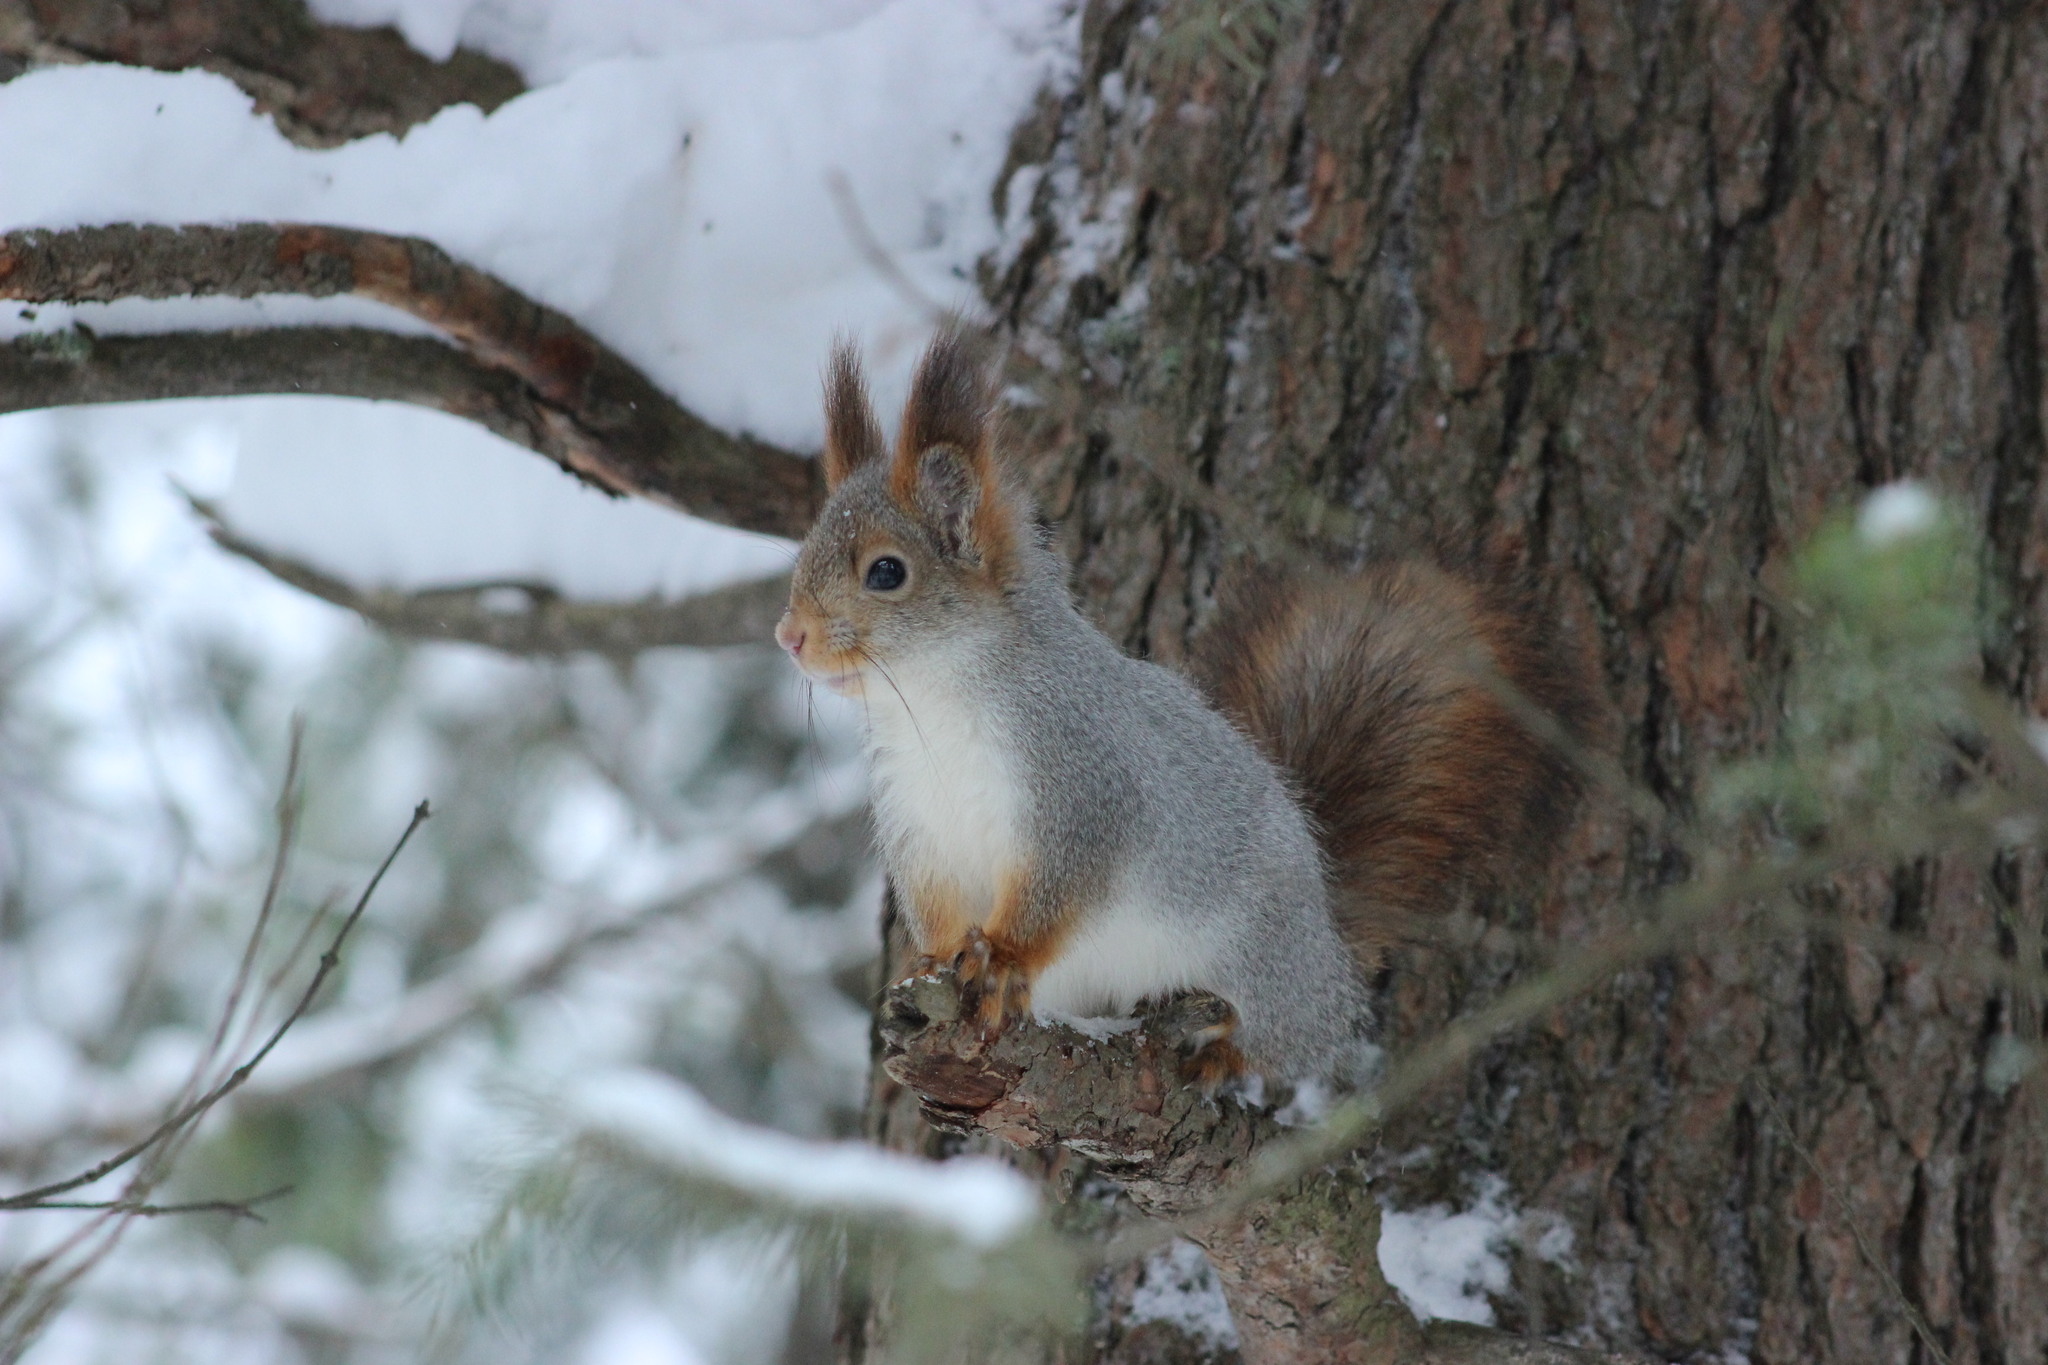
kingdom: Animalia
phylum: Chordata
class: Mammalia
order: Rodentia
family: Sciuridae
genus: Sciurus
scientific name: Sciurus vulgaris
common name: Eurasian red squirrel
